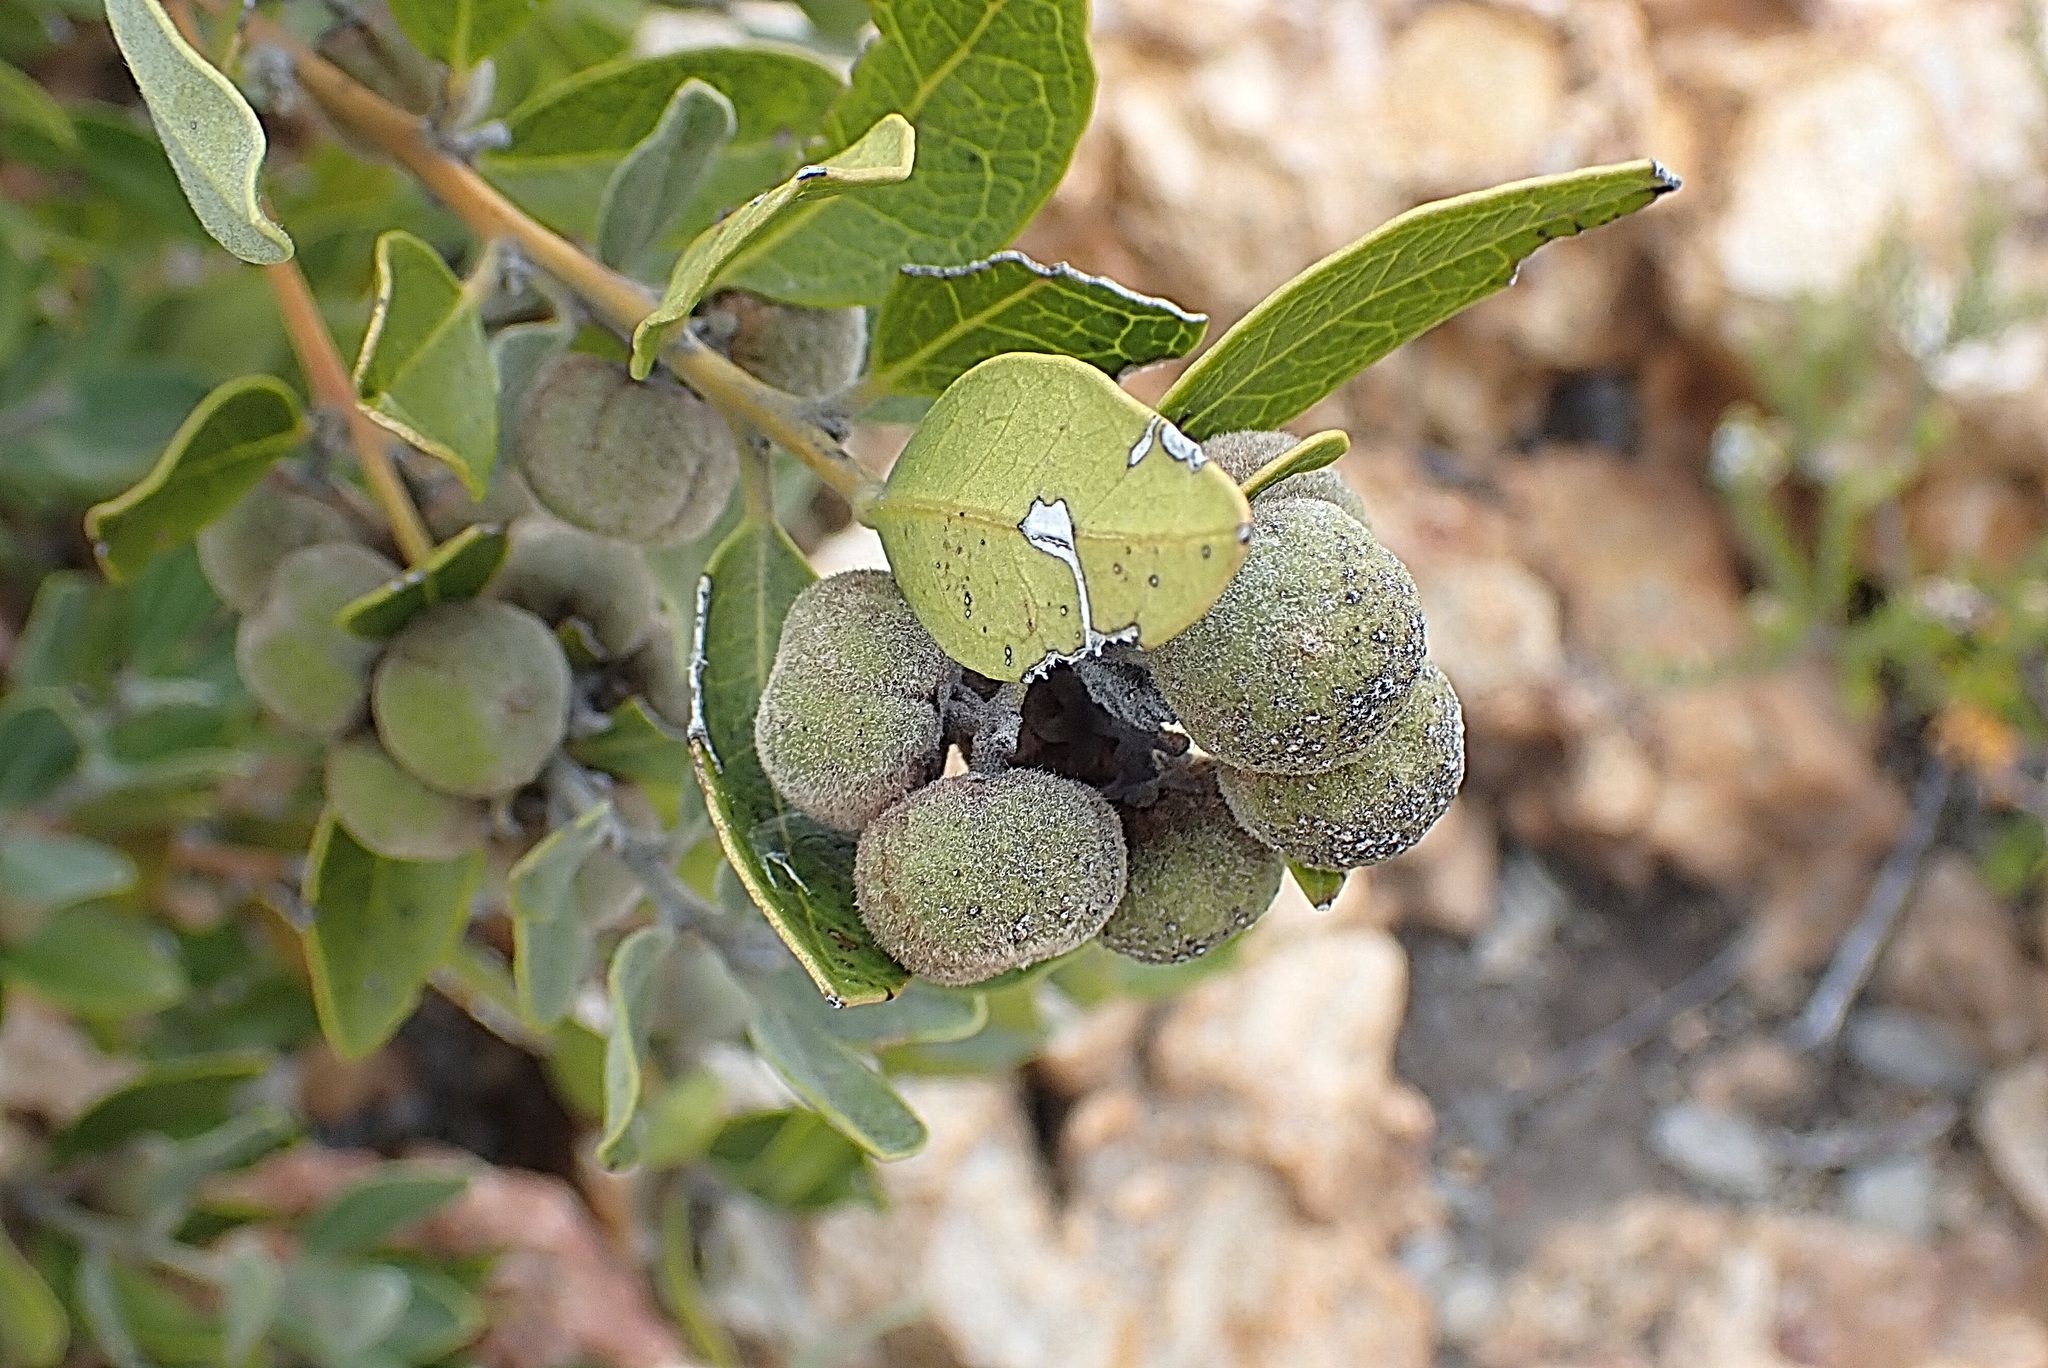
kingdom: Plantae
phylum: Tracheophyta
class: Magnoliopsida
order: Ericales
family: Ebenaceae
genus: Euclea
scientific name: Euclea polyandra
